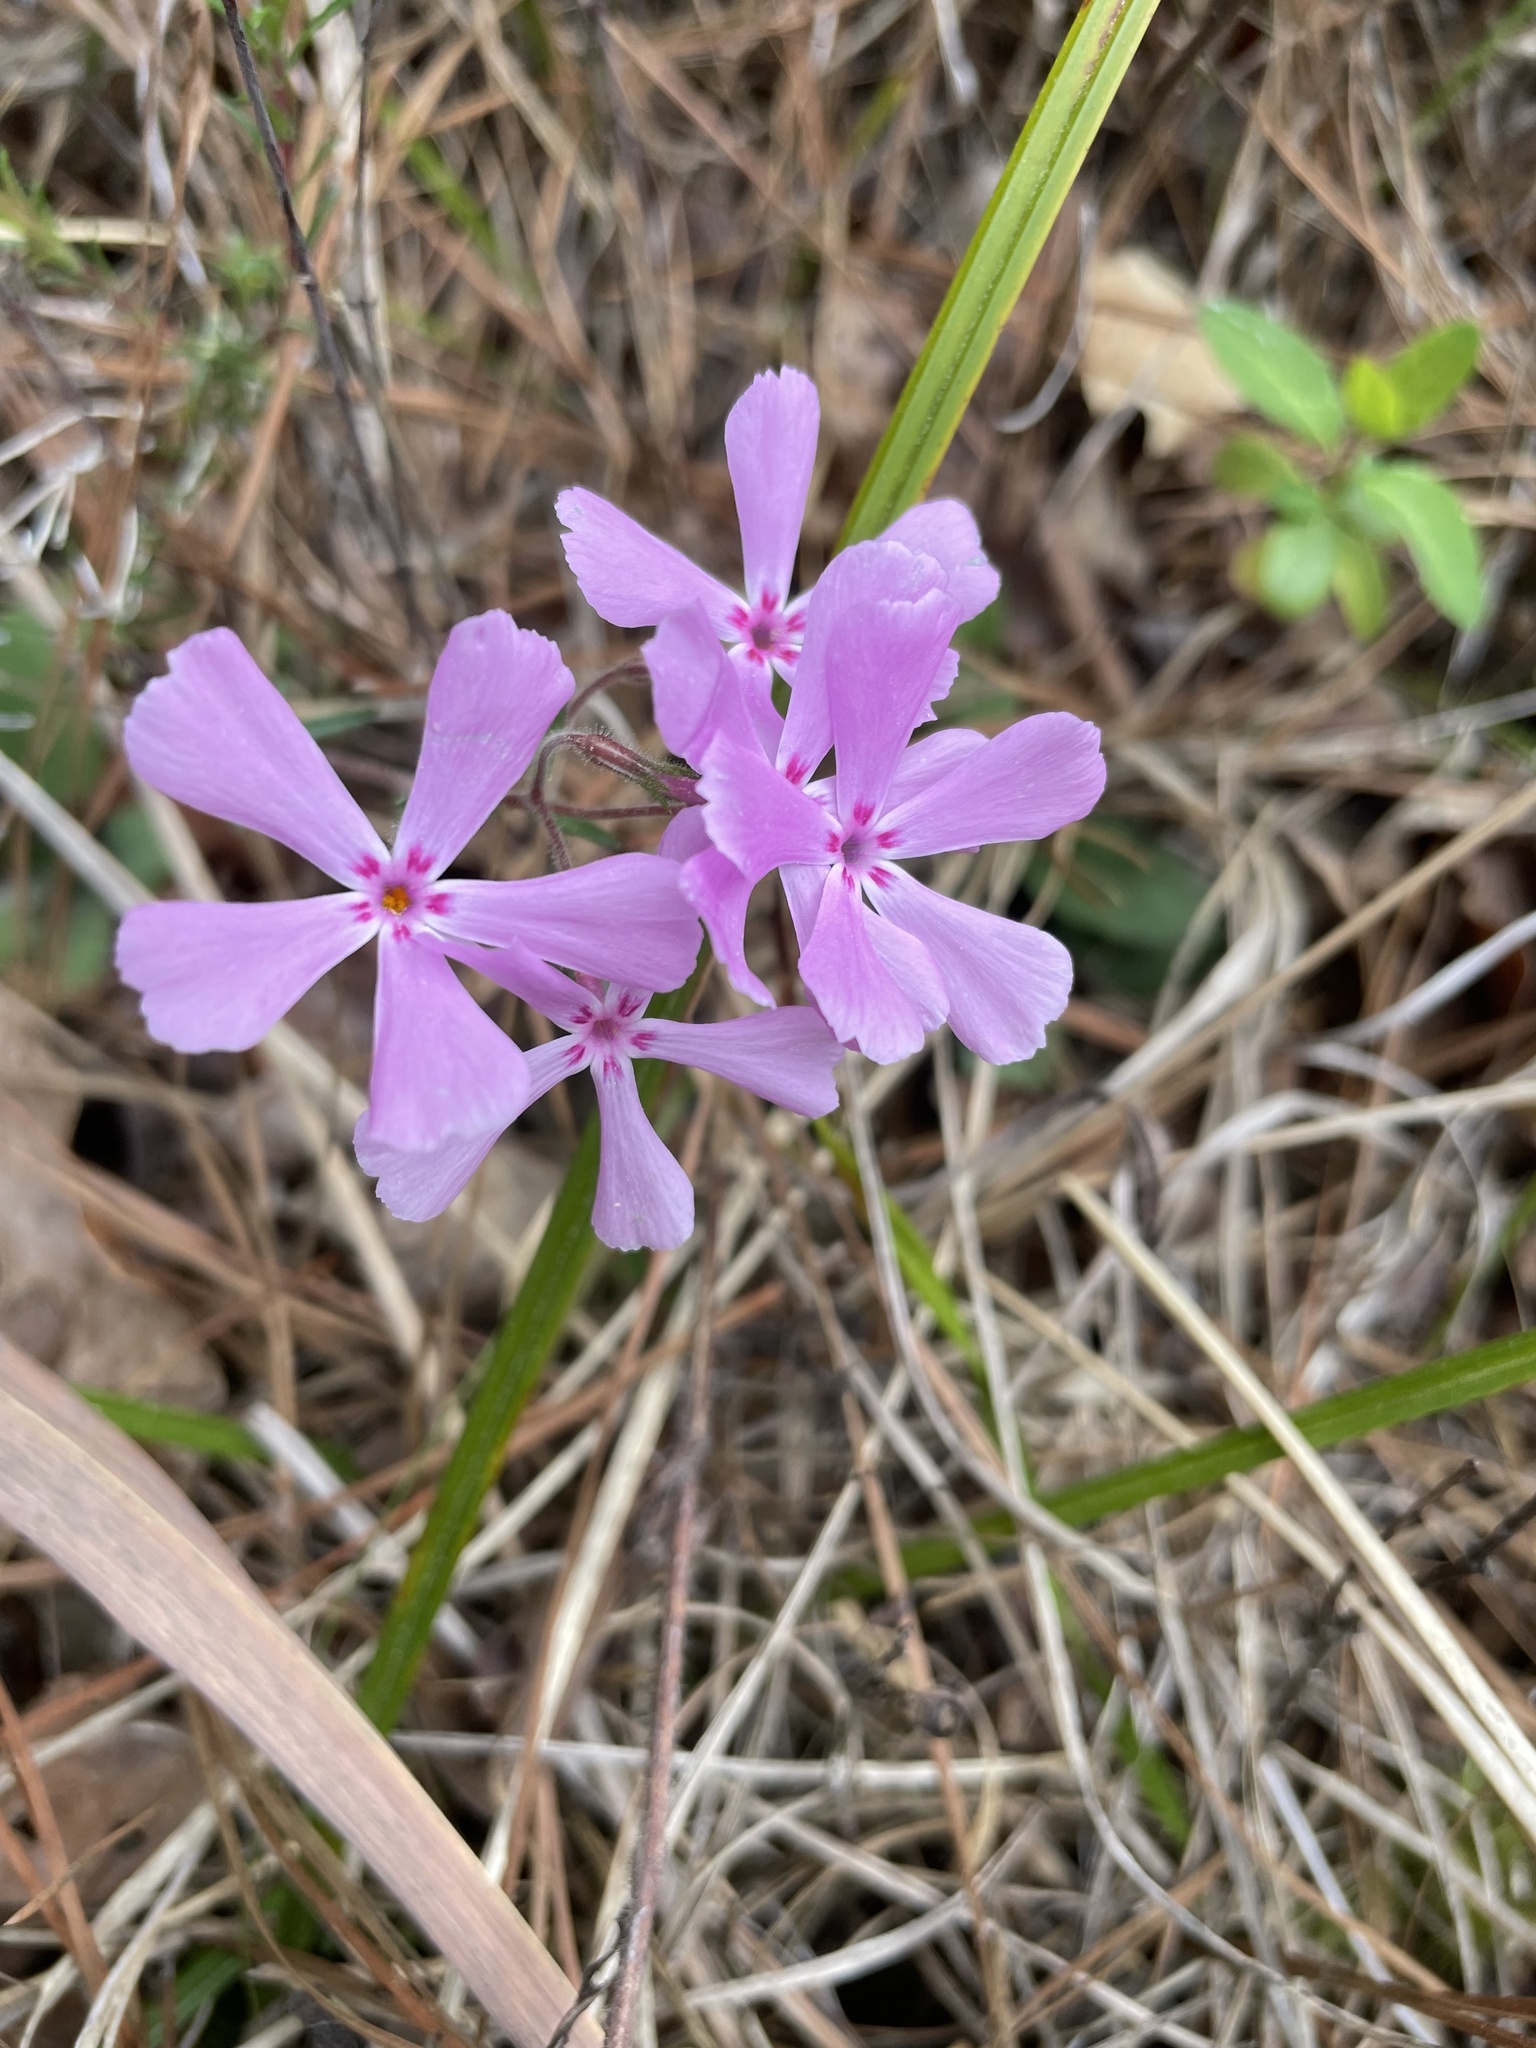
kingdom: Plantae
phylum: Tracheophyta
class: Magnoliopsida
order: Ericales
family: Polemoniaceae
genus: Phlox
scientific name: Phlox nivalis
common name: Trailing phlox
